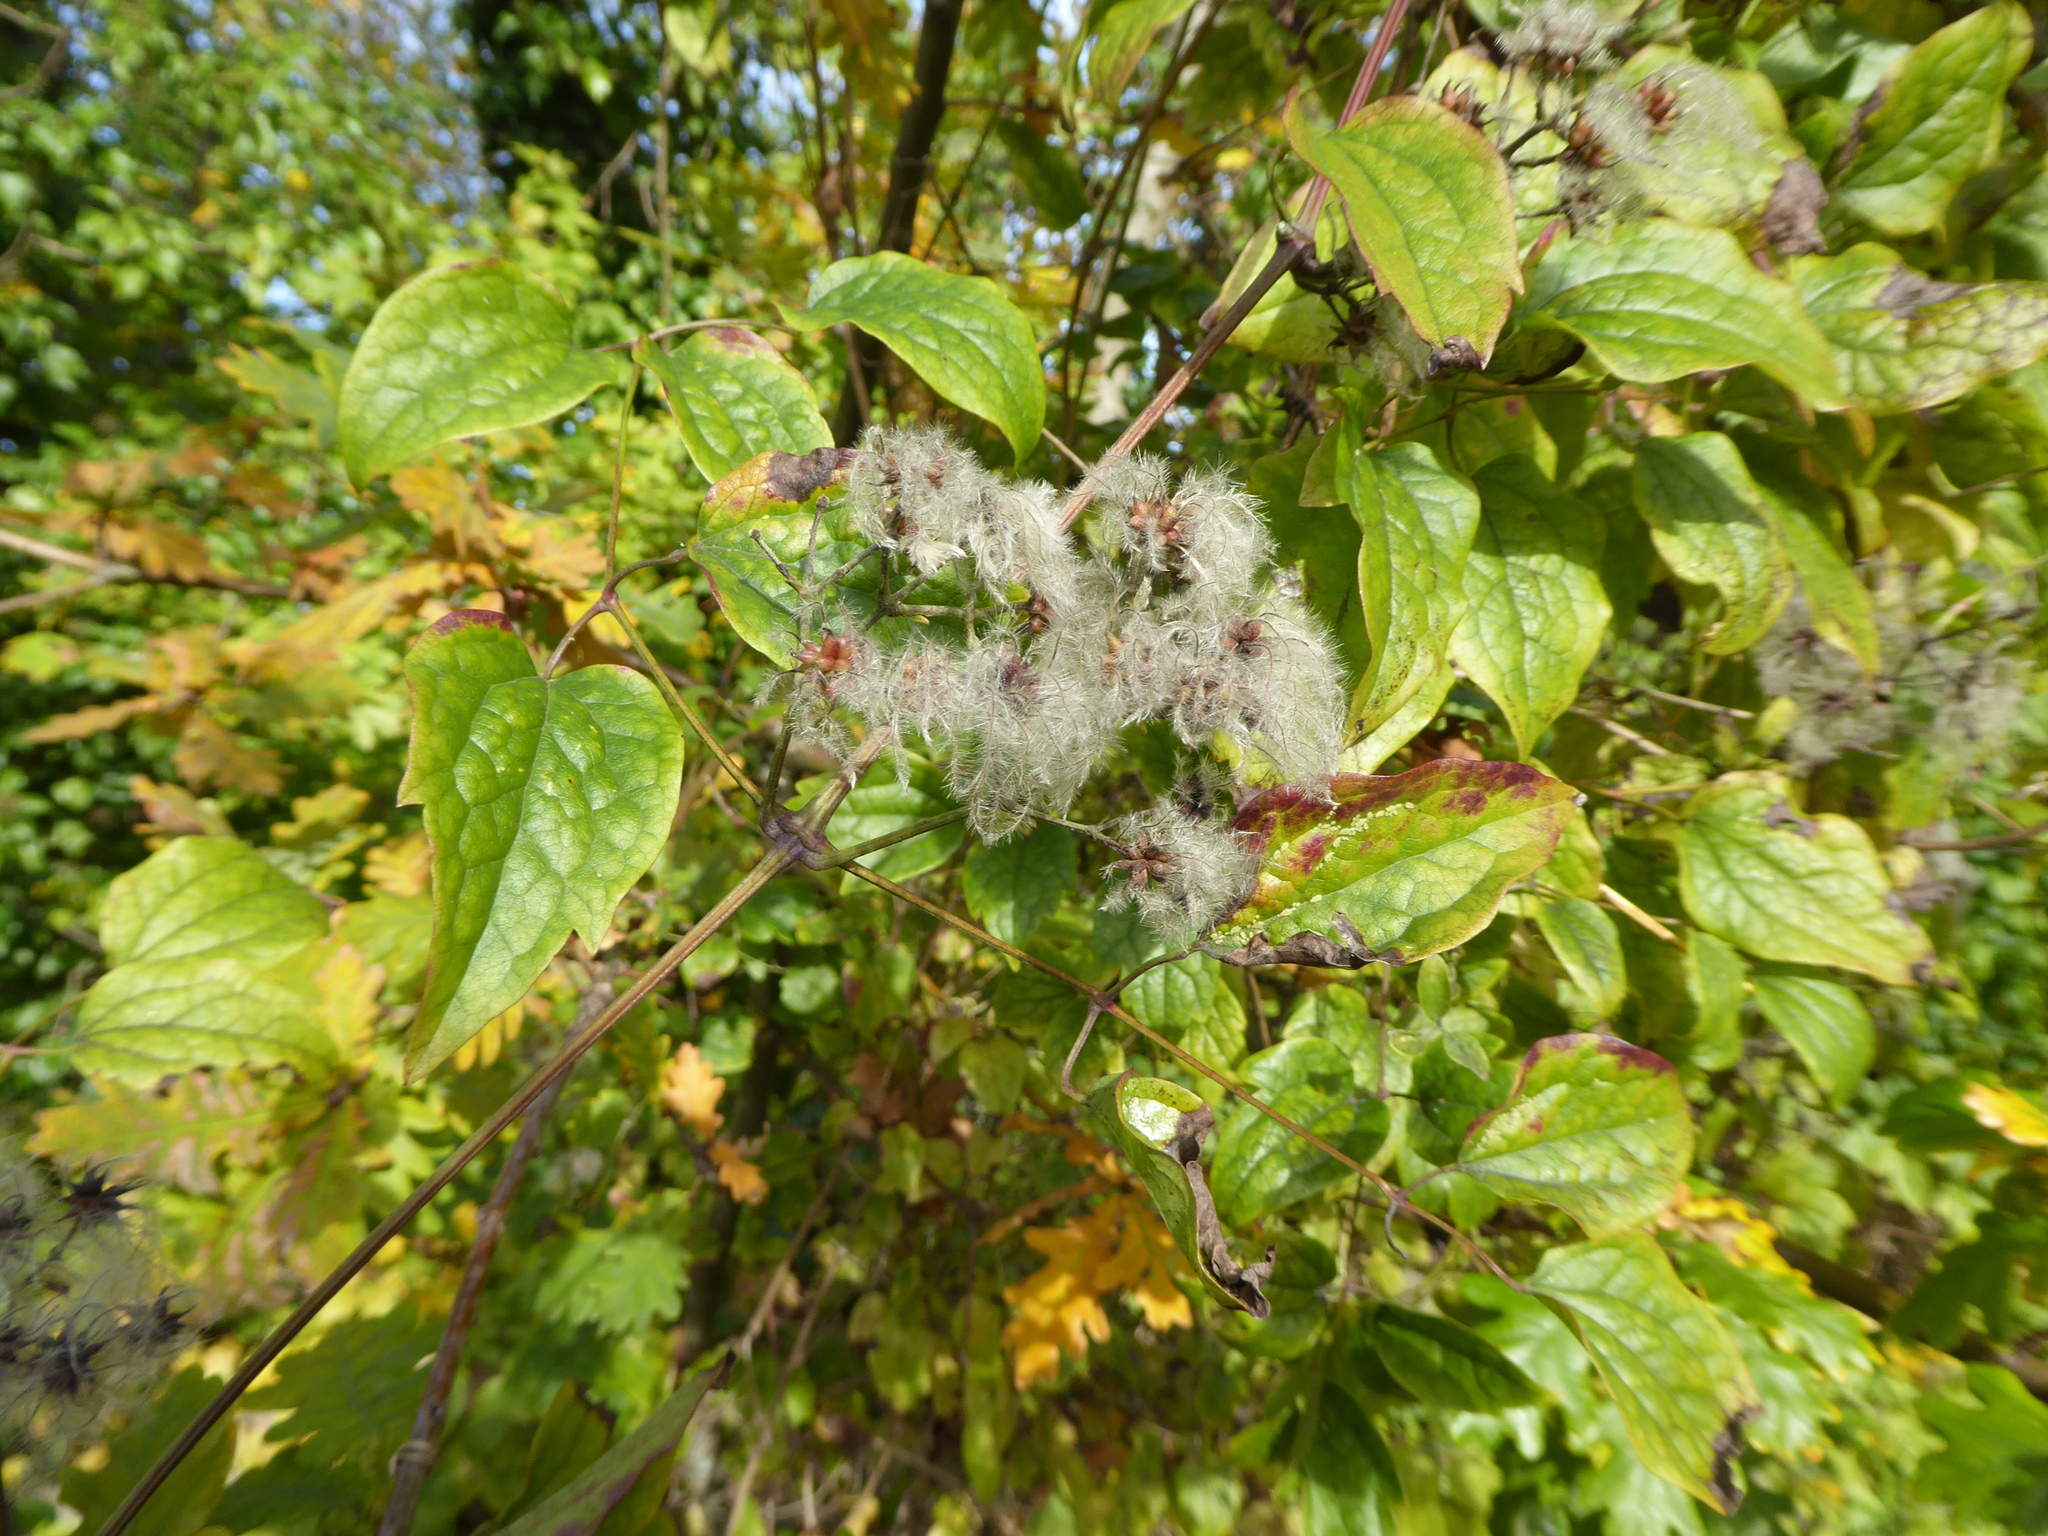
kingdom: Plantae
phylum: Tracheophyta
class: Magnoliopsida
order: Ranunculales
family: Ranunculaceae
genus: Clematis
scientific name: Clematis vitalba
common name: Evergreen clematis
